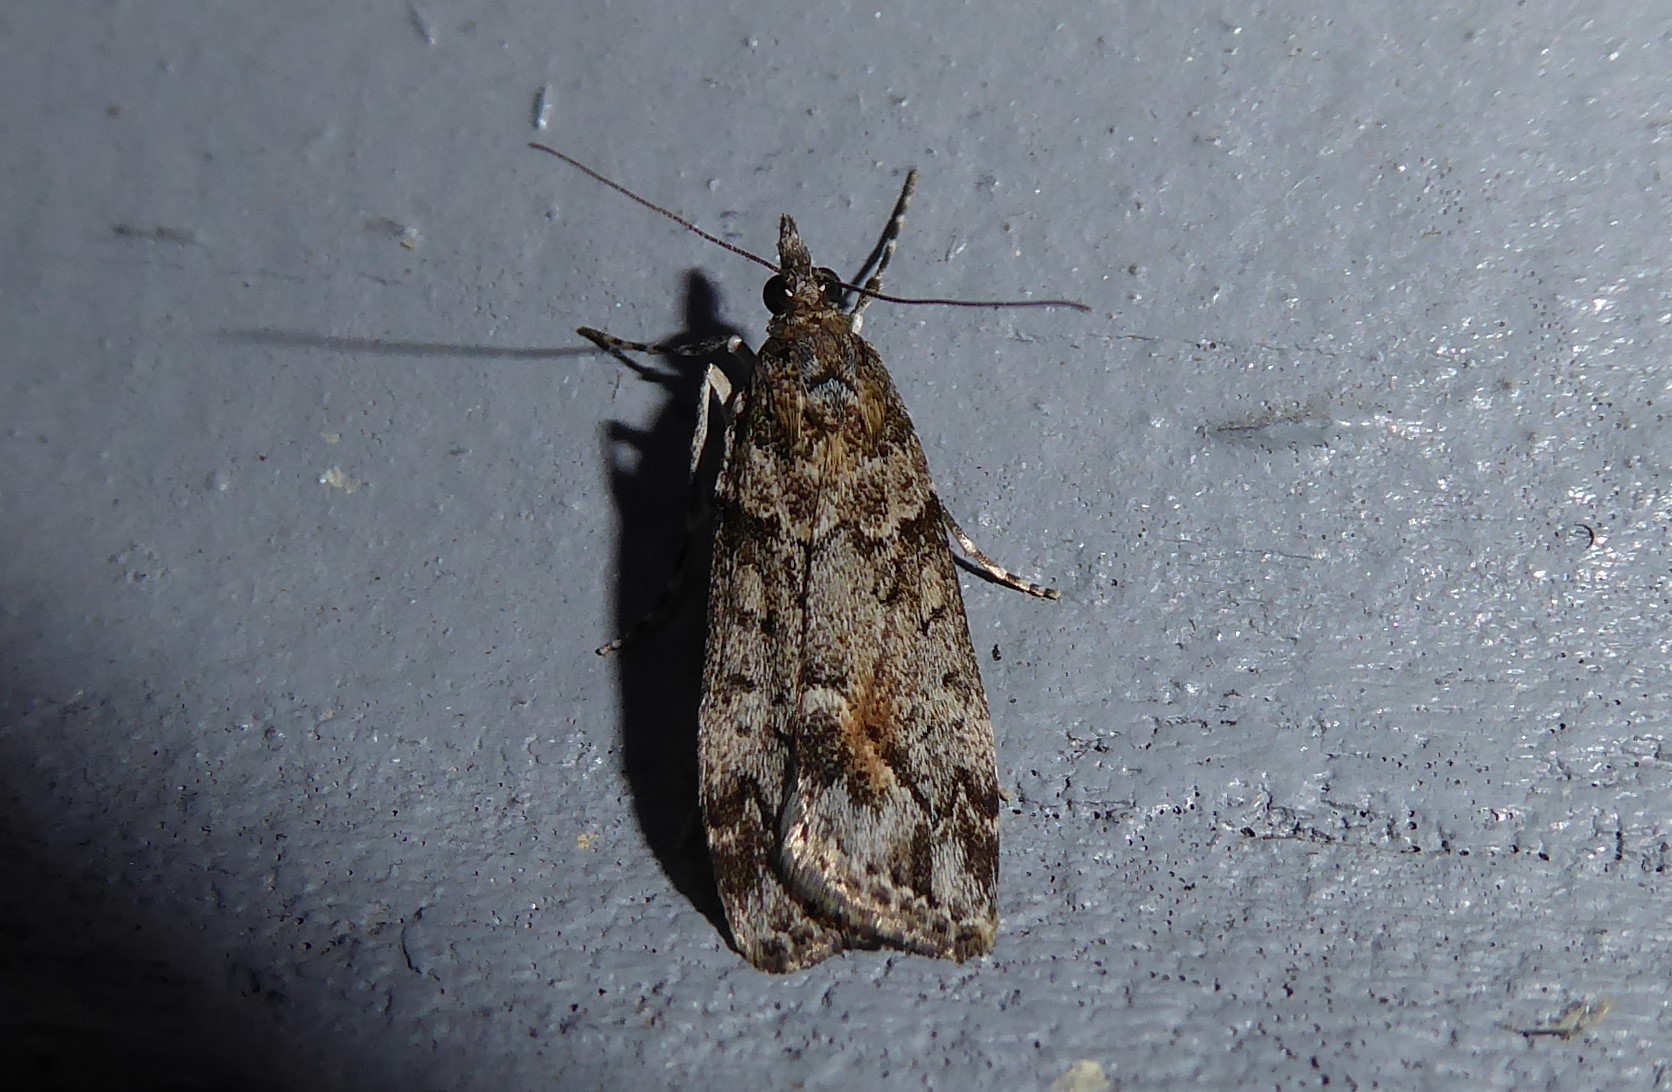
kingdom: Animalia
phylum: Arthropoda
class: Insecta
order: Lepidoptera
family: Crambidae
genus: Eudonia
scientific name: Eudonia submarginalis
